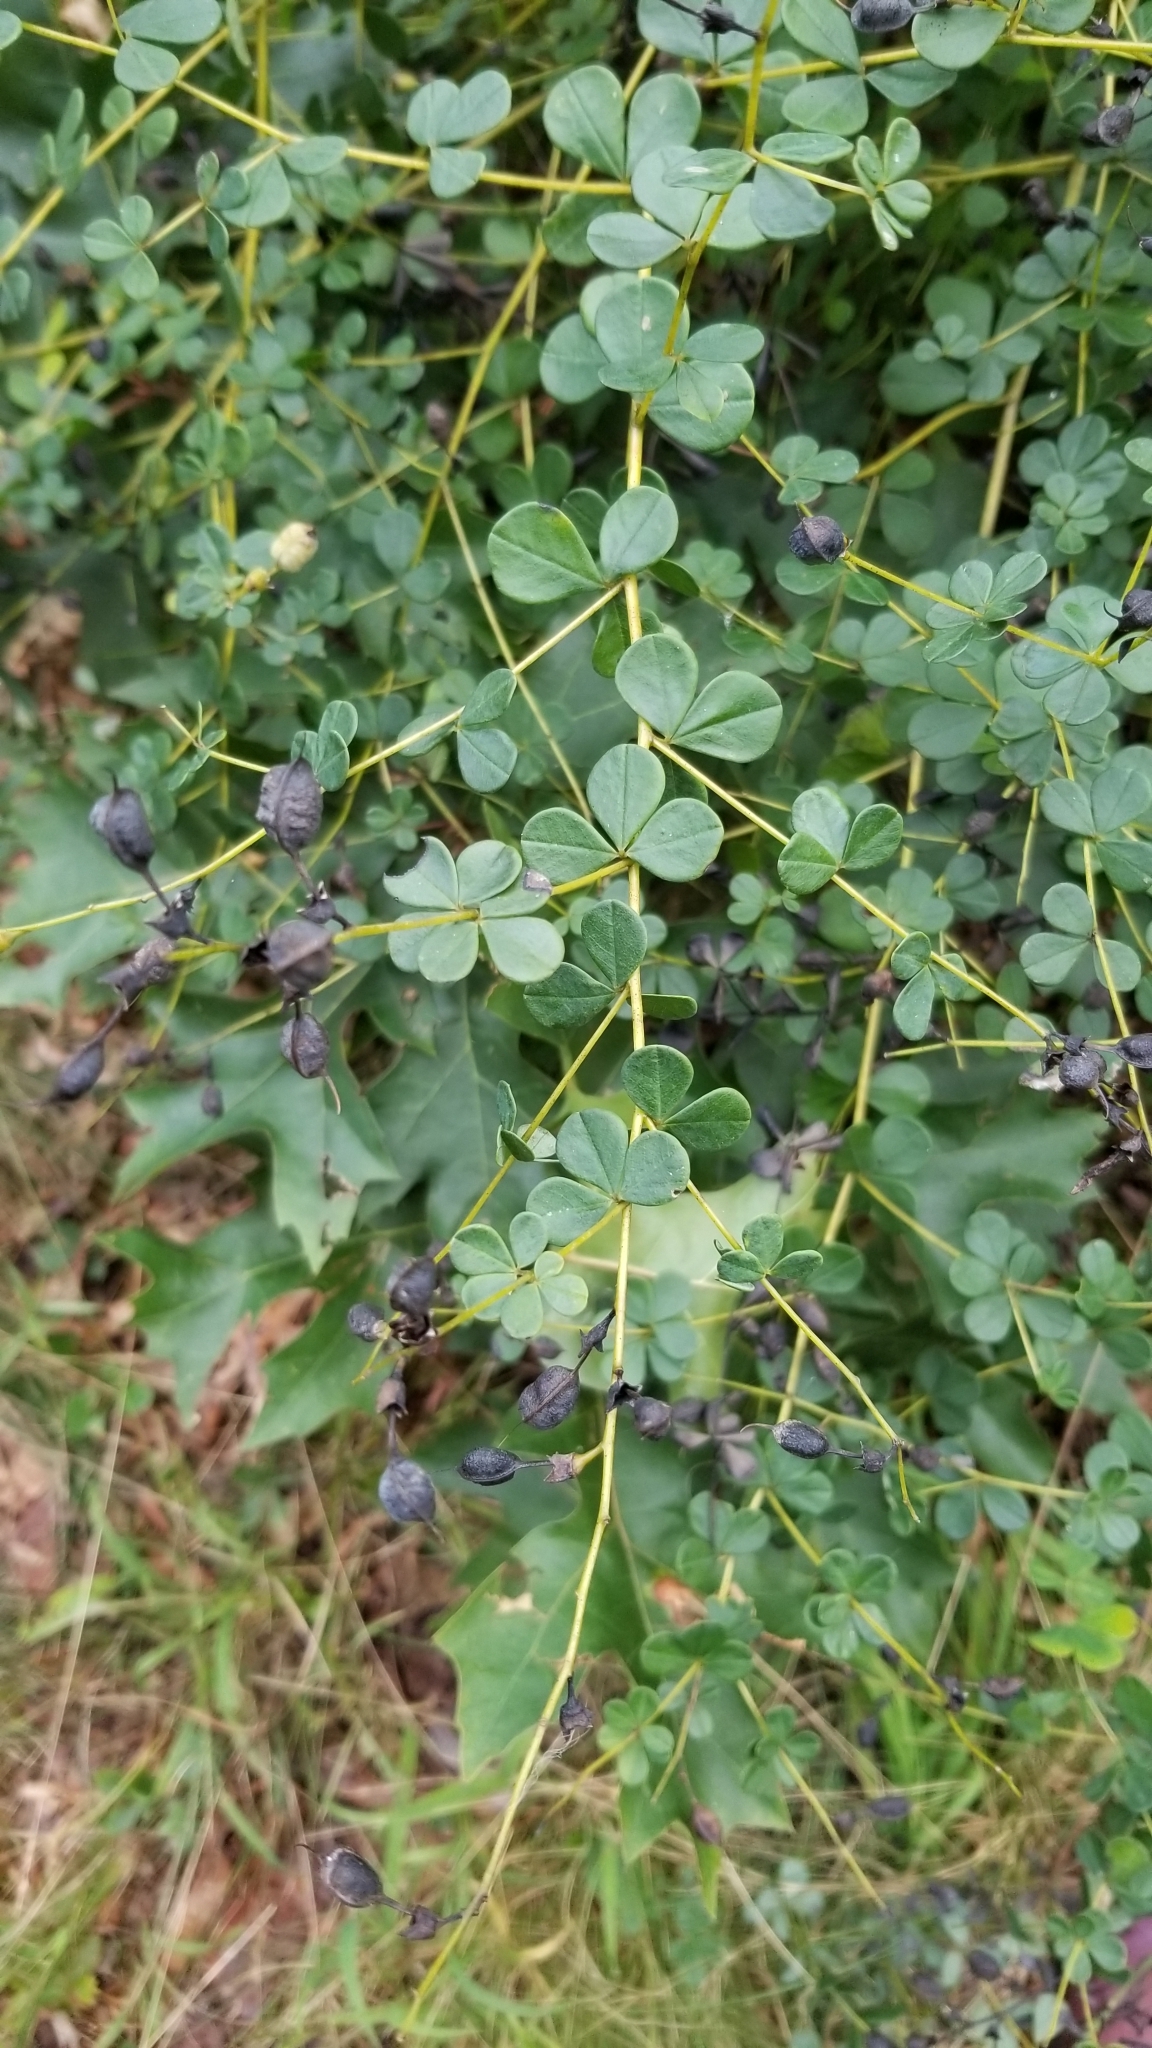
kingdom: Plantae
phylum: Tracheophyta
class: Magnoliopsida
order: Fabales
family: Fabaceae
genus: Baptisia
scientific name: Baptisia tinctoria
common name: Wild indigo
